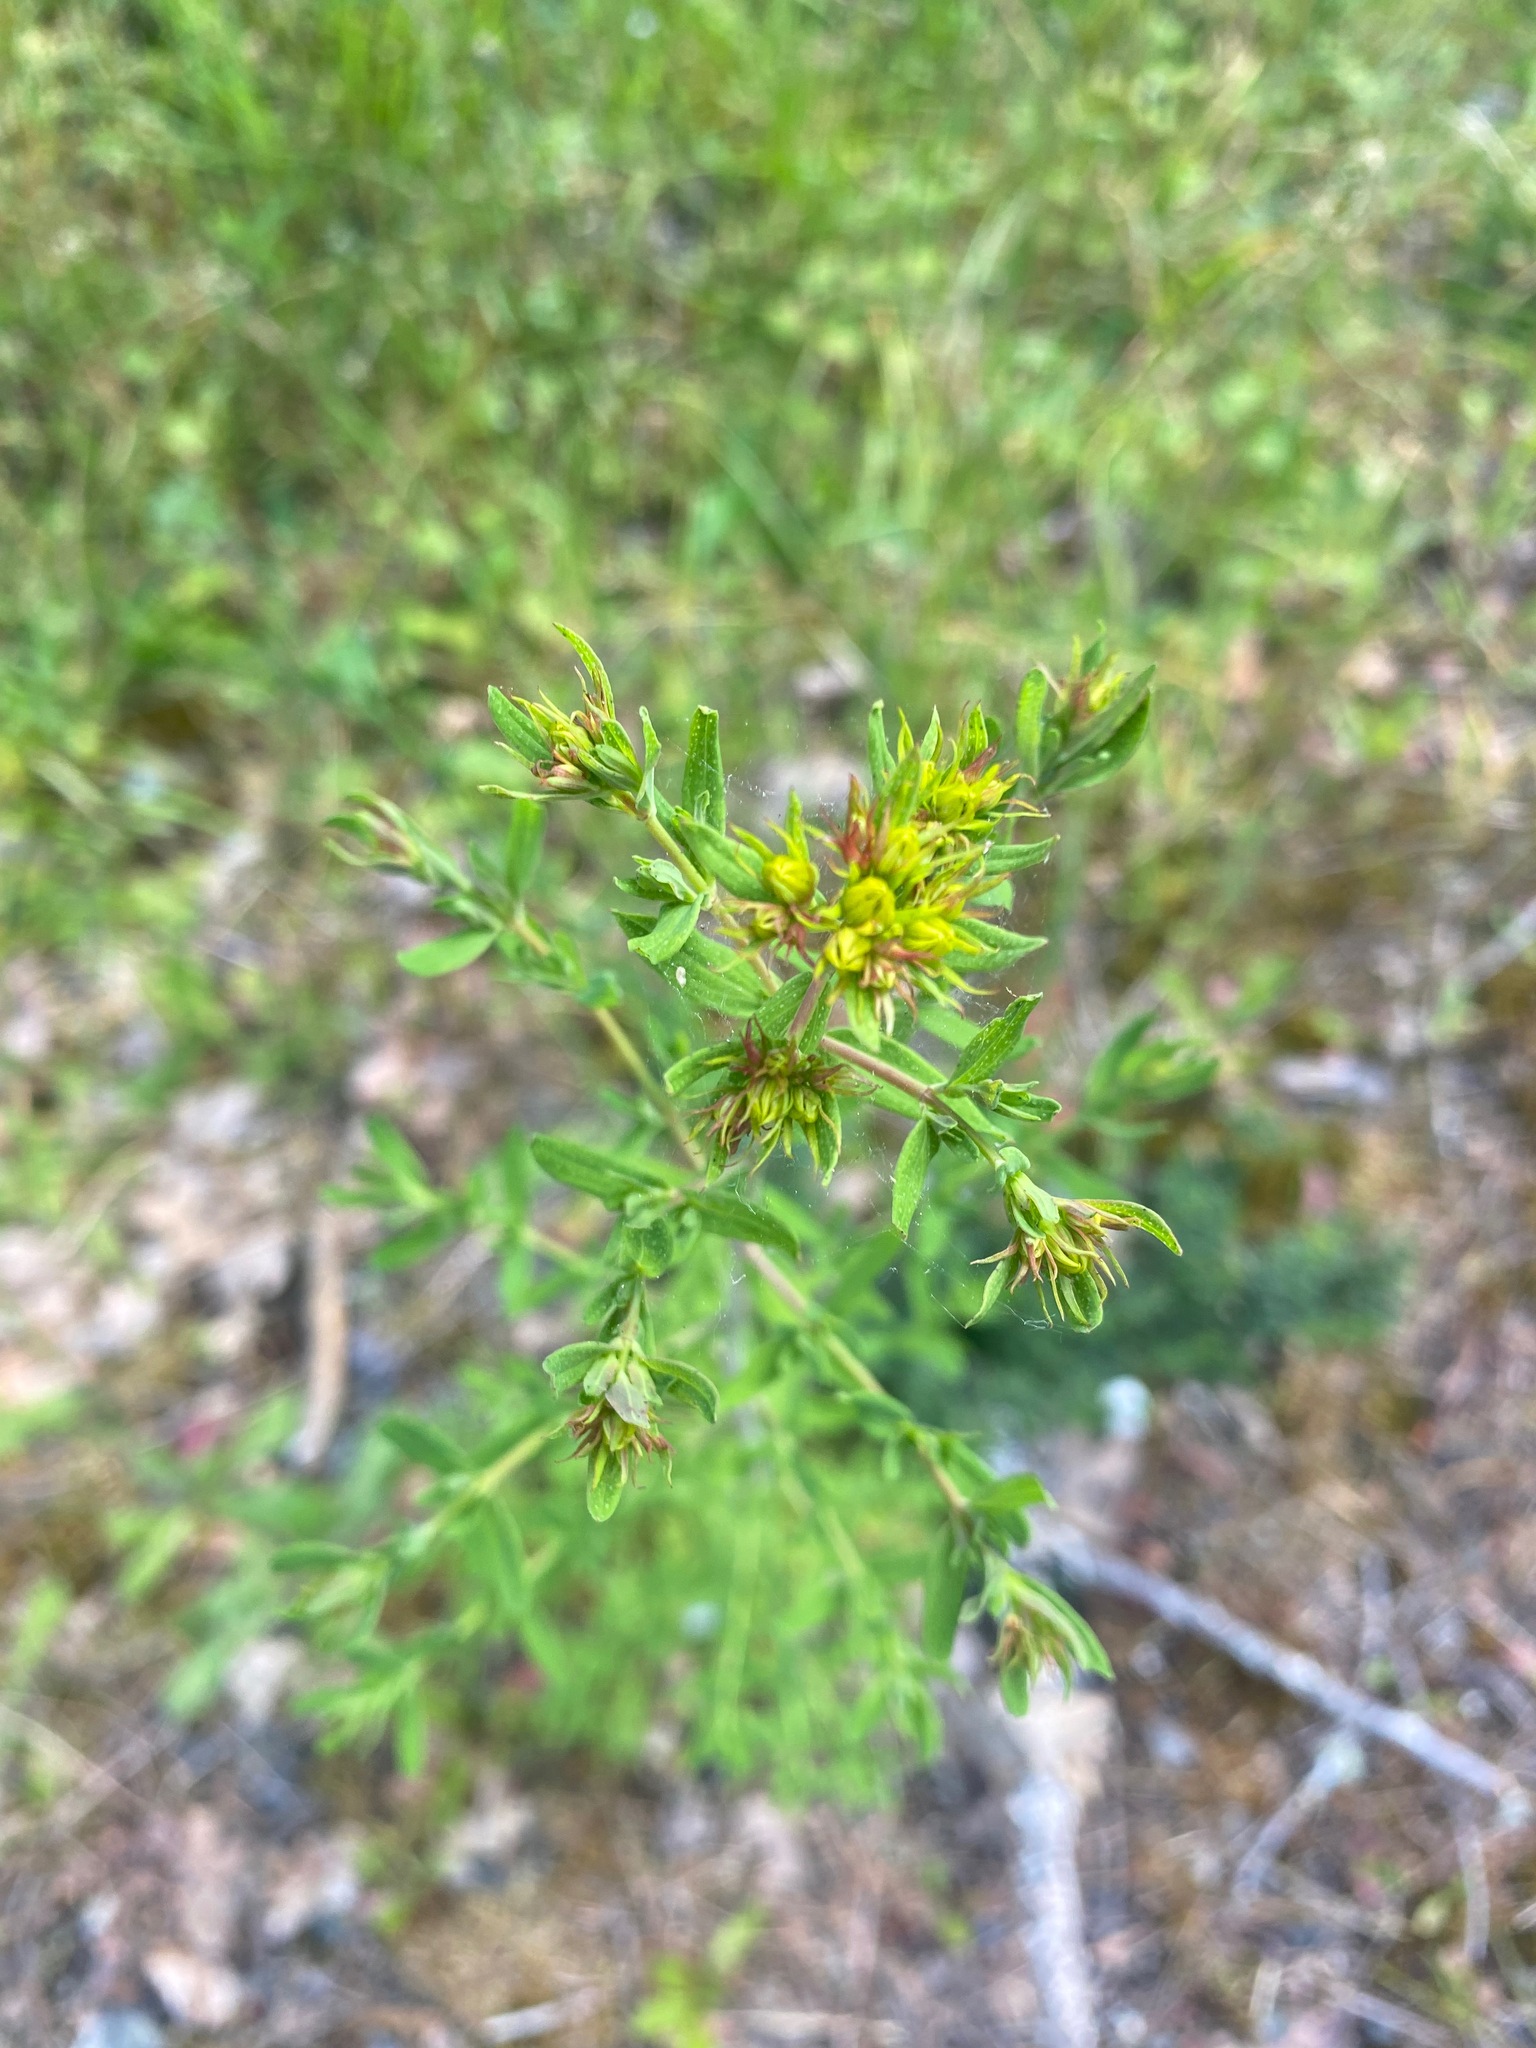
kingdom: Plantae
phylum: Tracheophyta
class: Magnoliopsida
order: Malpighiales
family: Hypericaceae
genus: Hypericum
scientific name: Hypericum perforatum
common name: Common st. johnswort
